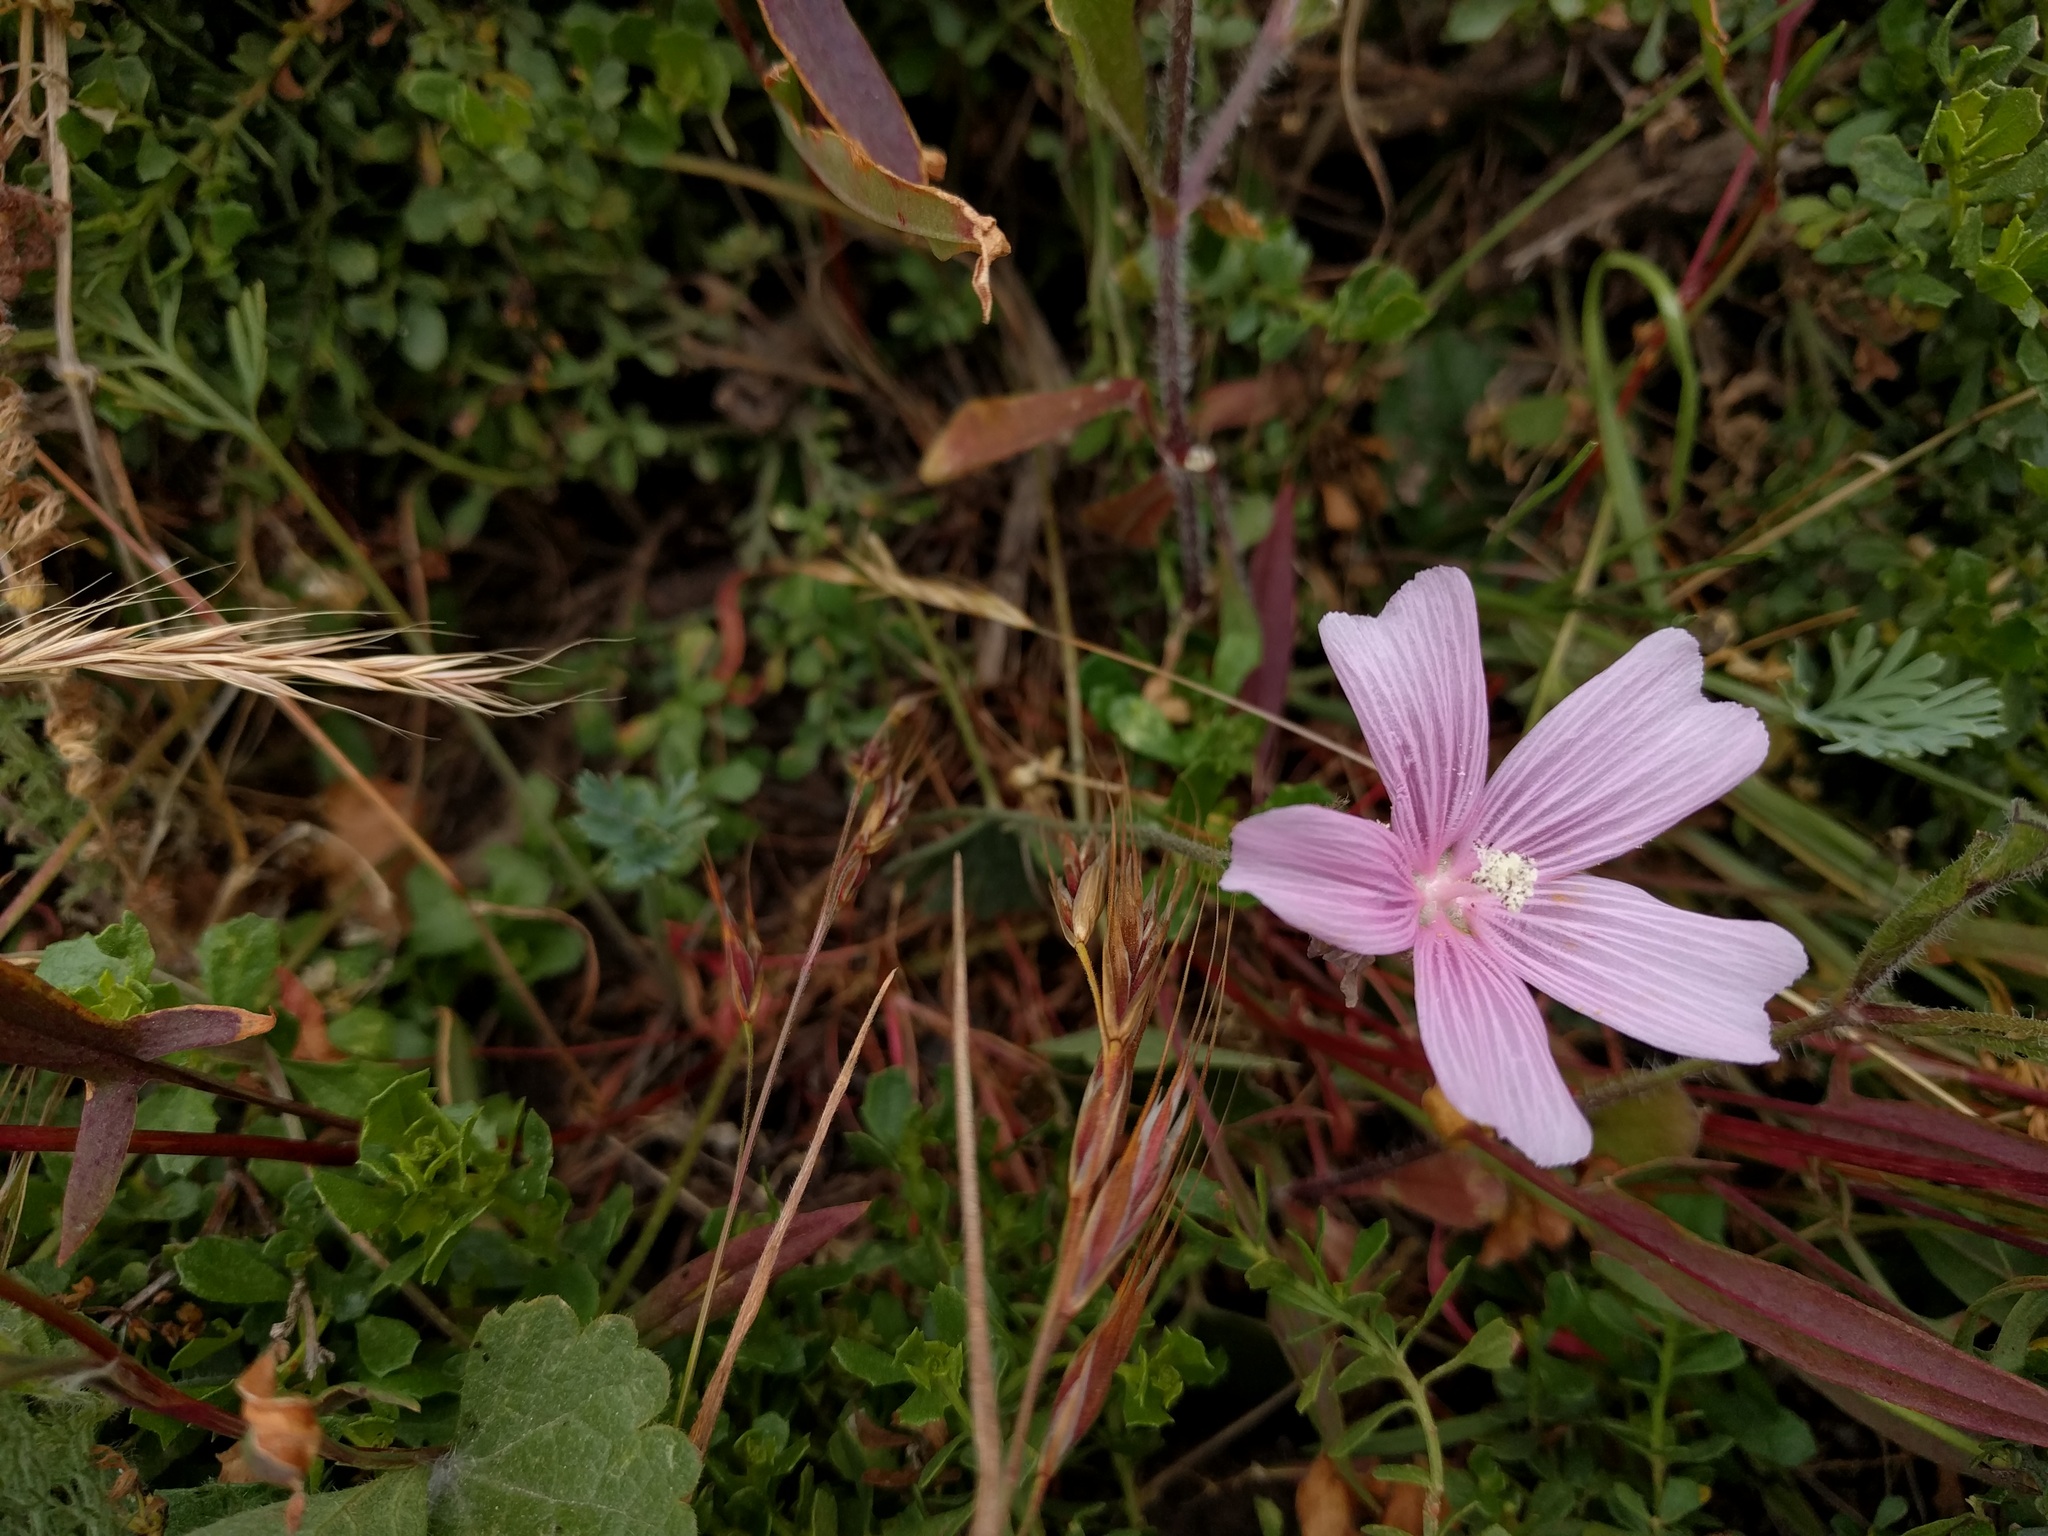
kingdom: Plantae
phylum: Tracheophyta
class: Magnoliopsida
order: Malvales
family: Malvaceae
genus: Sidalcea
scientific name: Sidalcea malviflora
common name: Greek mallow
